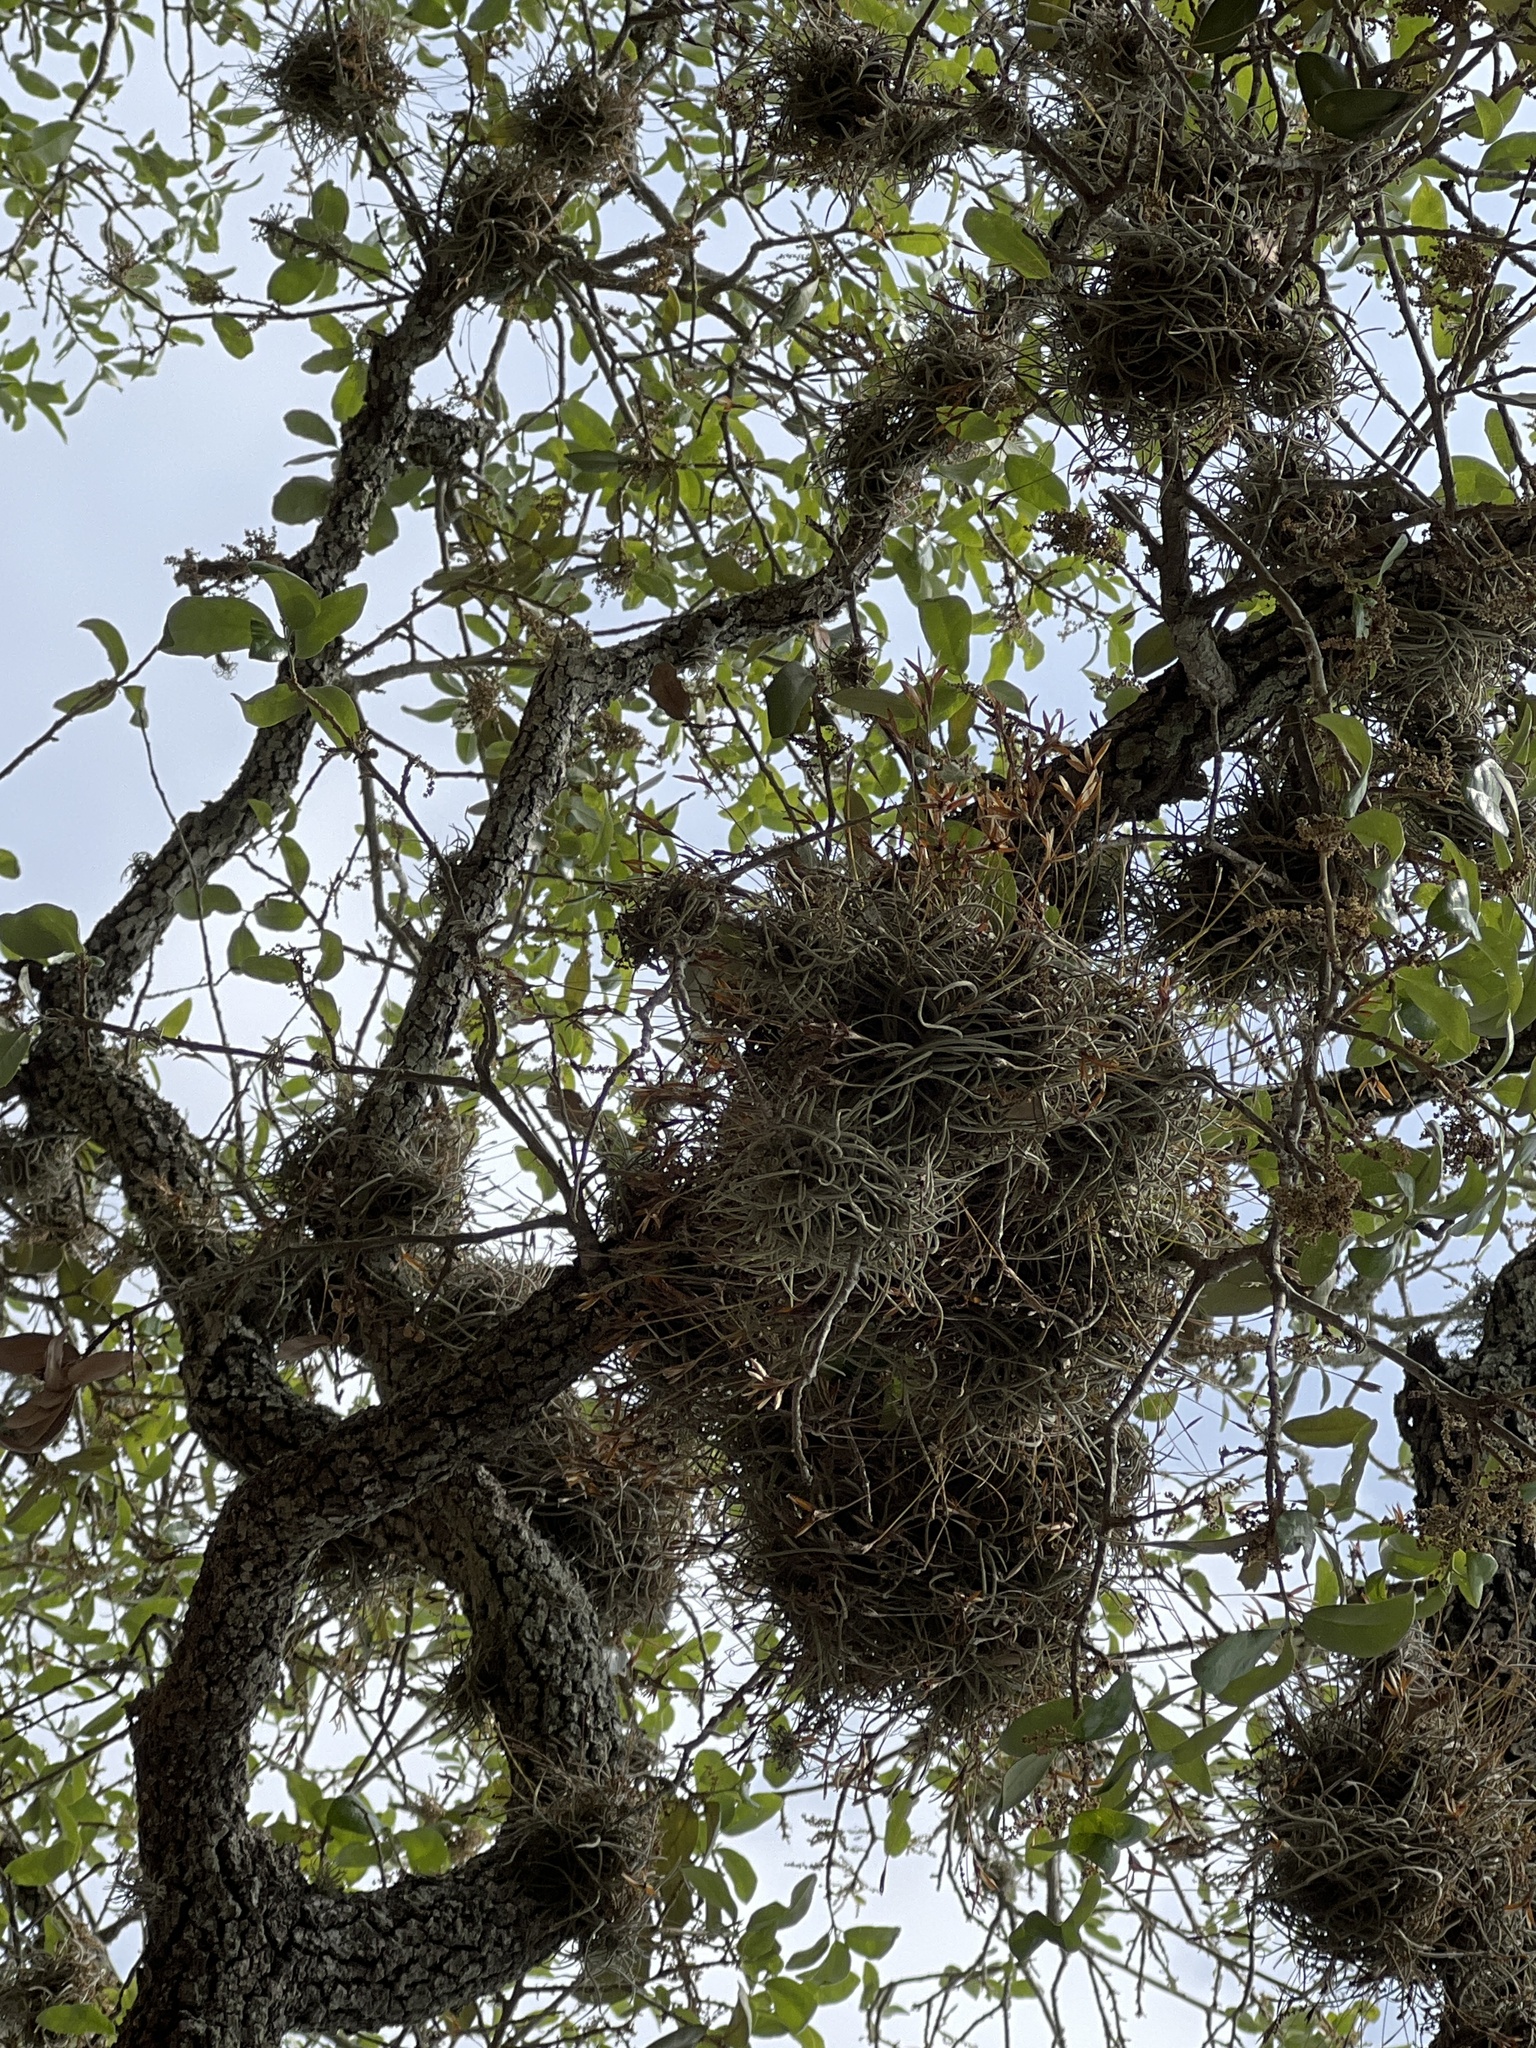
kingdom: Plantae
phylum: Tracheophyta
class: Liliopsida
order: Poales
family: Bromeliaceae
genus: Tillandsia
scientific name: Tillandsia recurvata
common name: Small ballmoss
